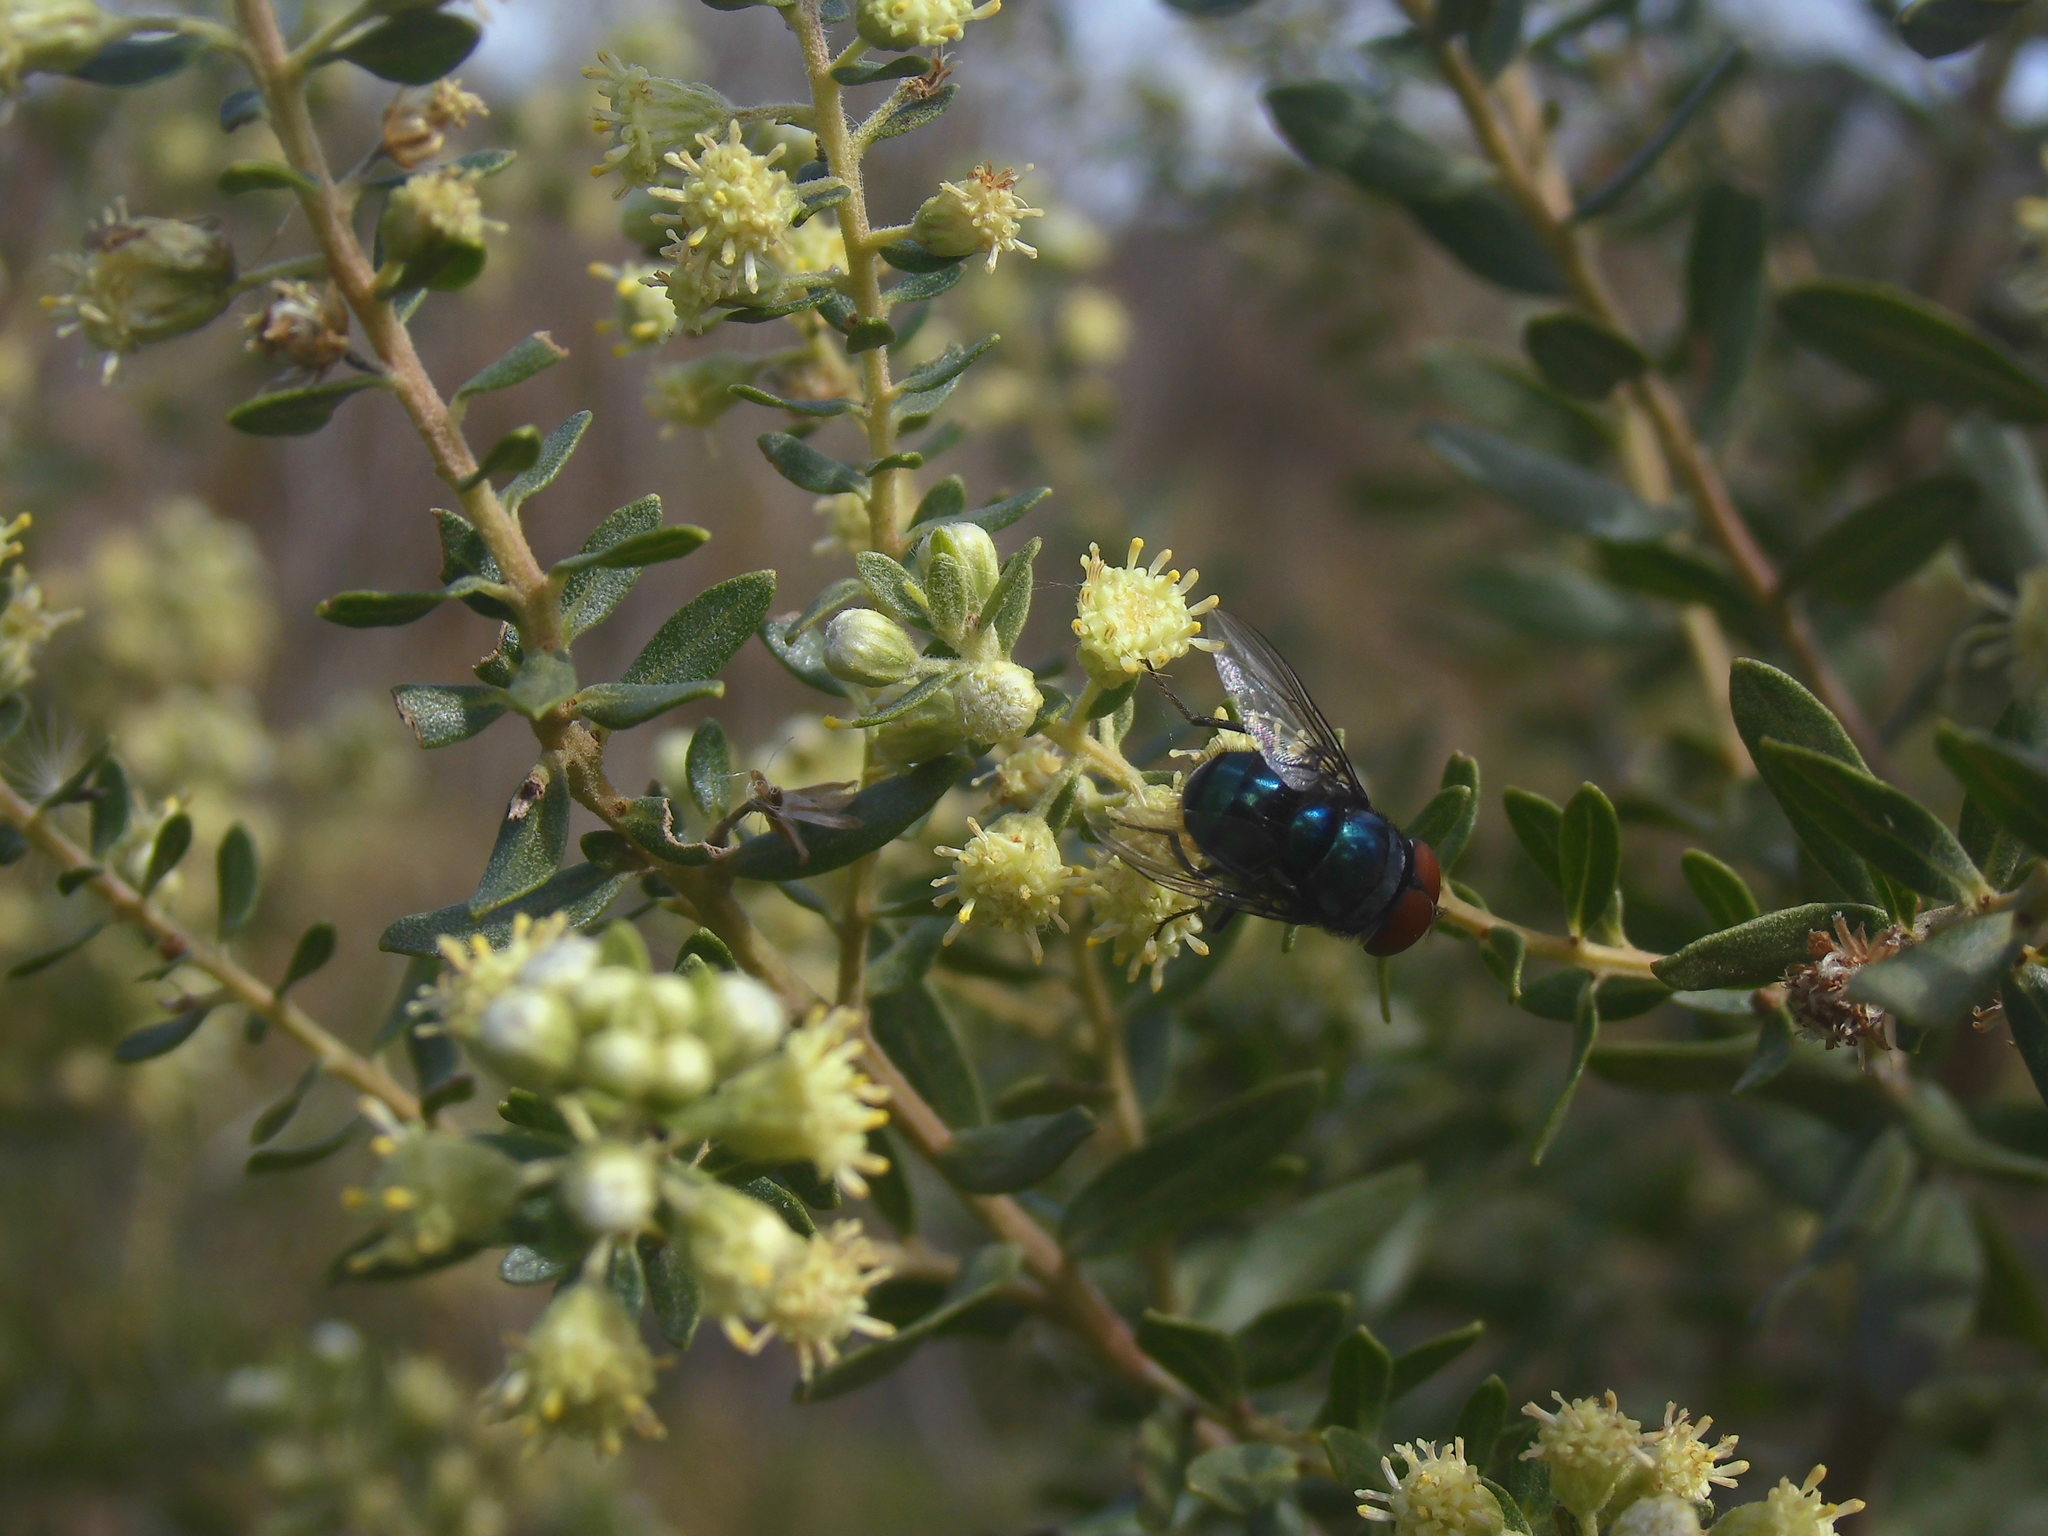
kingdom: Animalia
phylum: Arthropoda
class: Insecta
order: Diptera
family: Calliphoridae
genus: Chrysomya
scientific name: Chrysomya megacephala
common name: Blow fly
